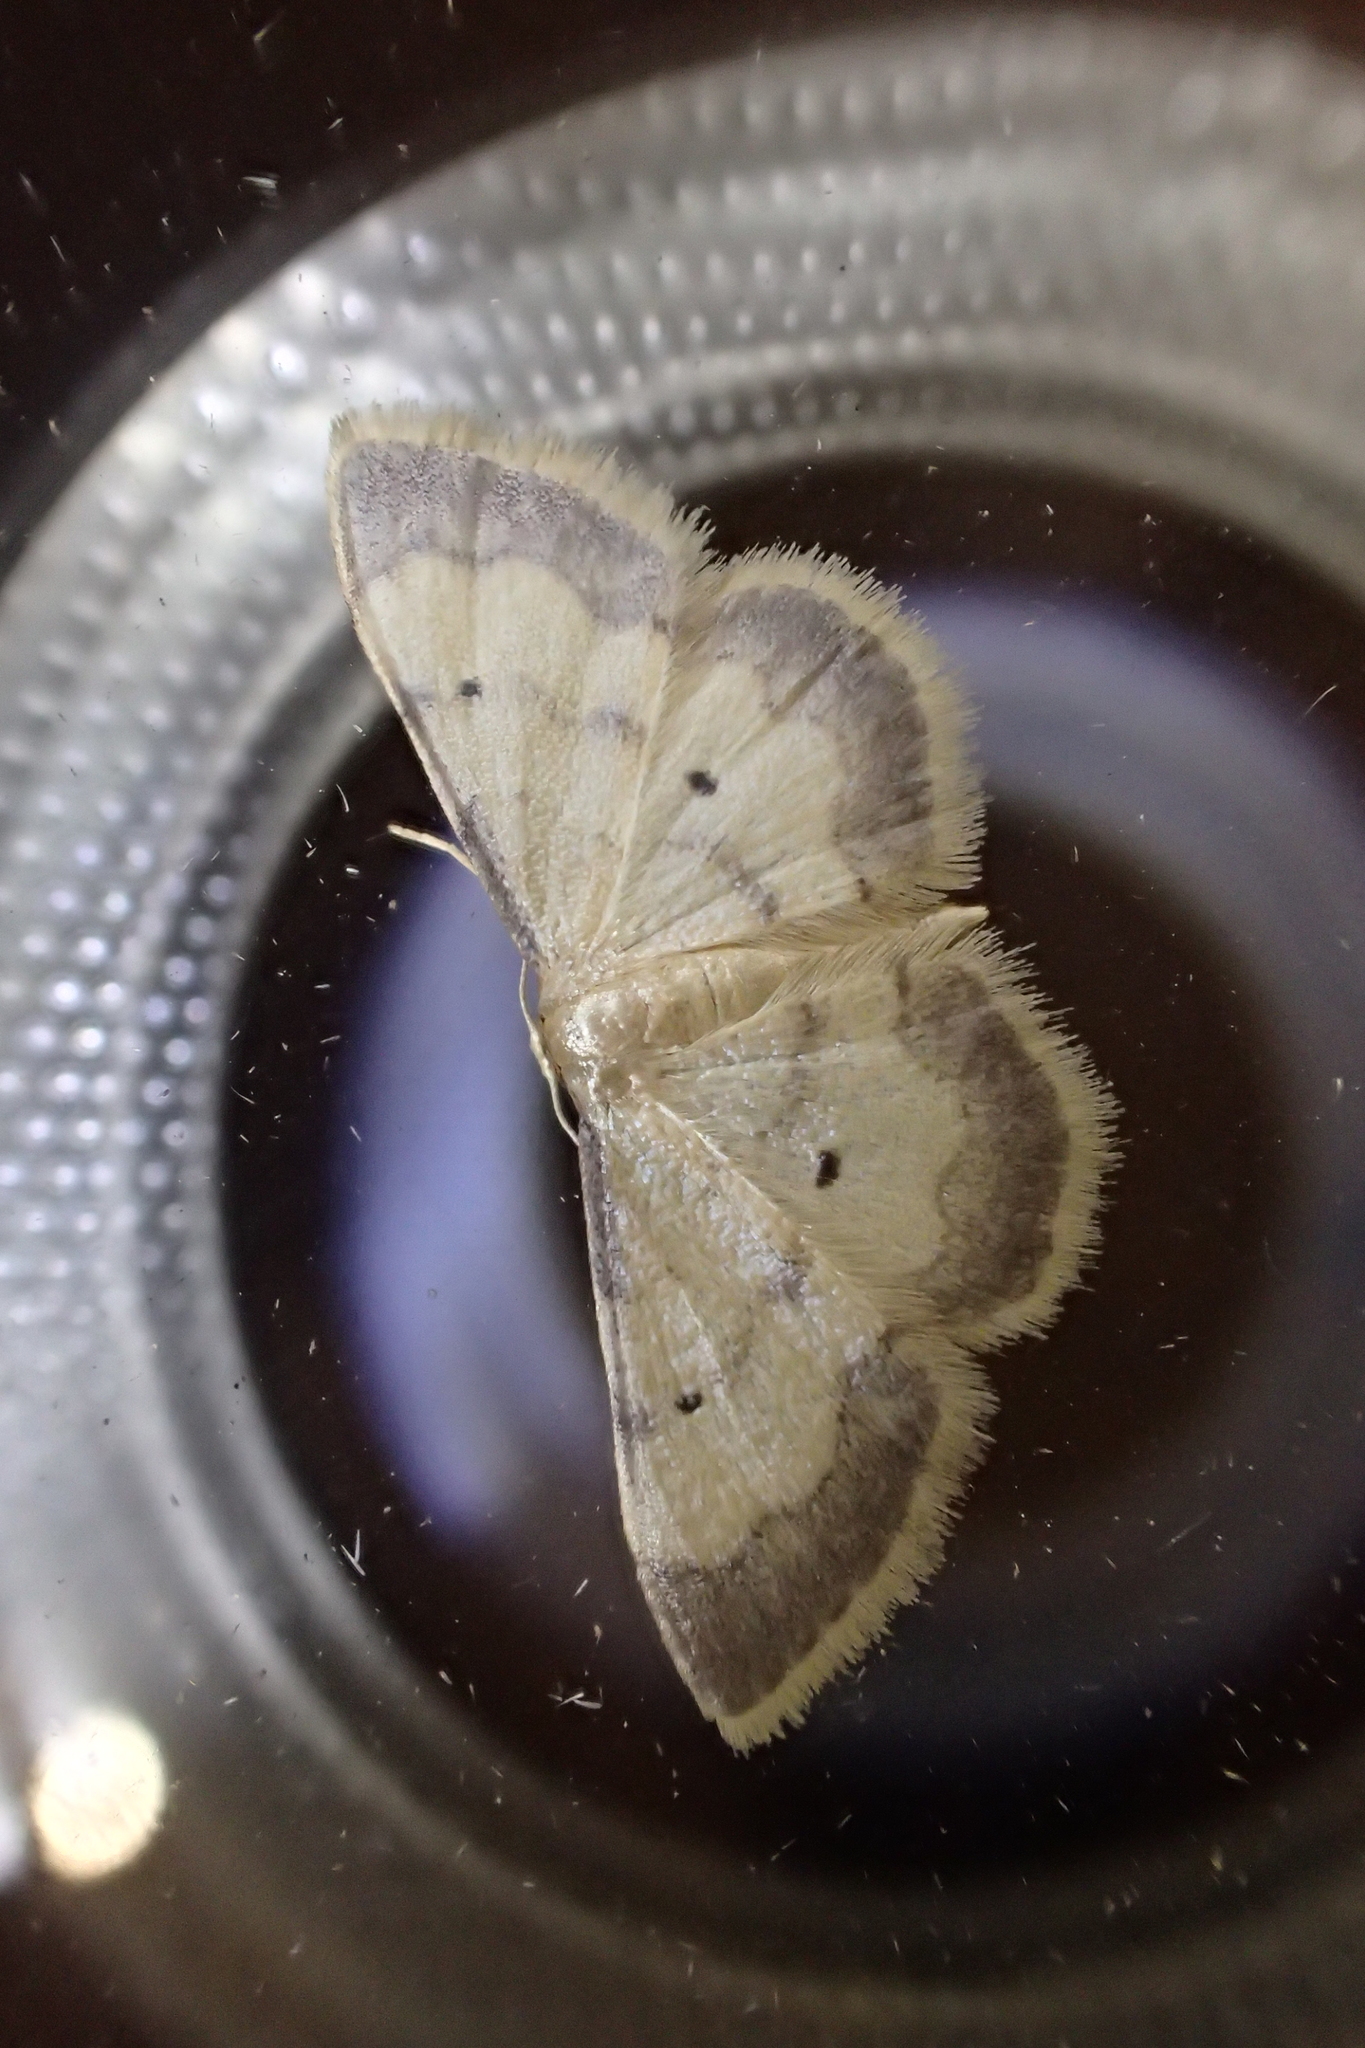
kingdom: Animalia
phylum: Arthropoda
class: Insecta
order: Lepidoptera
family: Geometridae
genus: Idaea
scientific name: Idaea politaria
